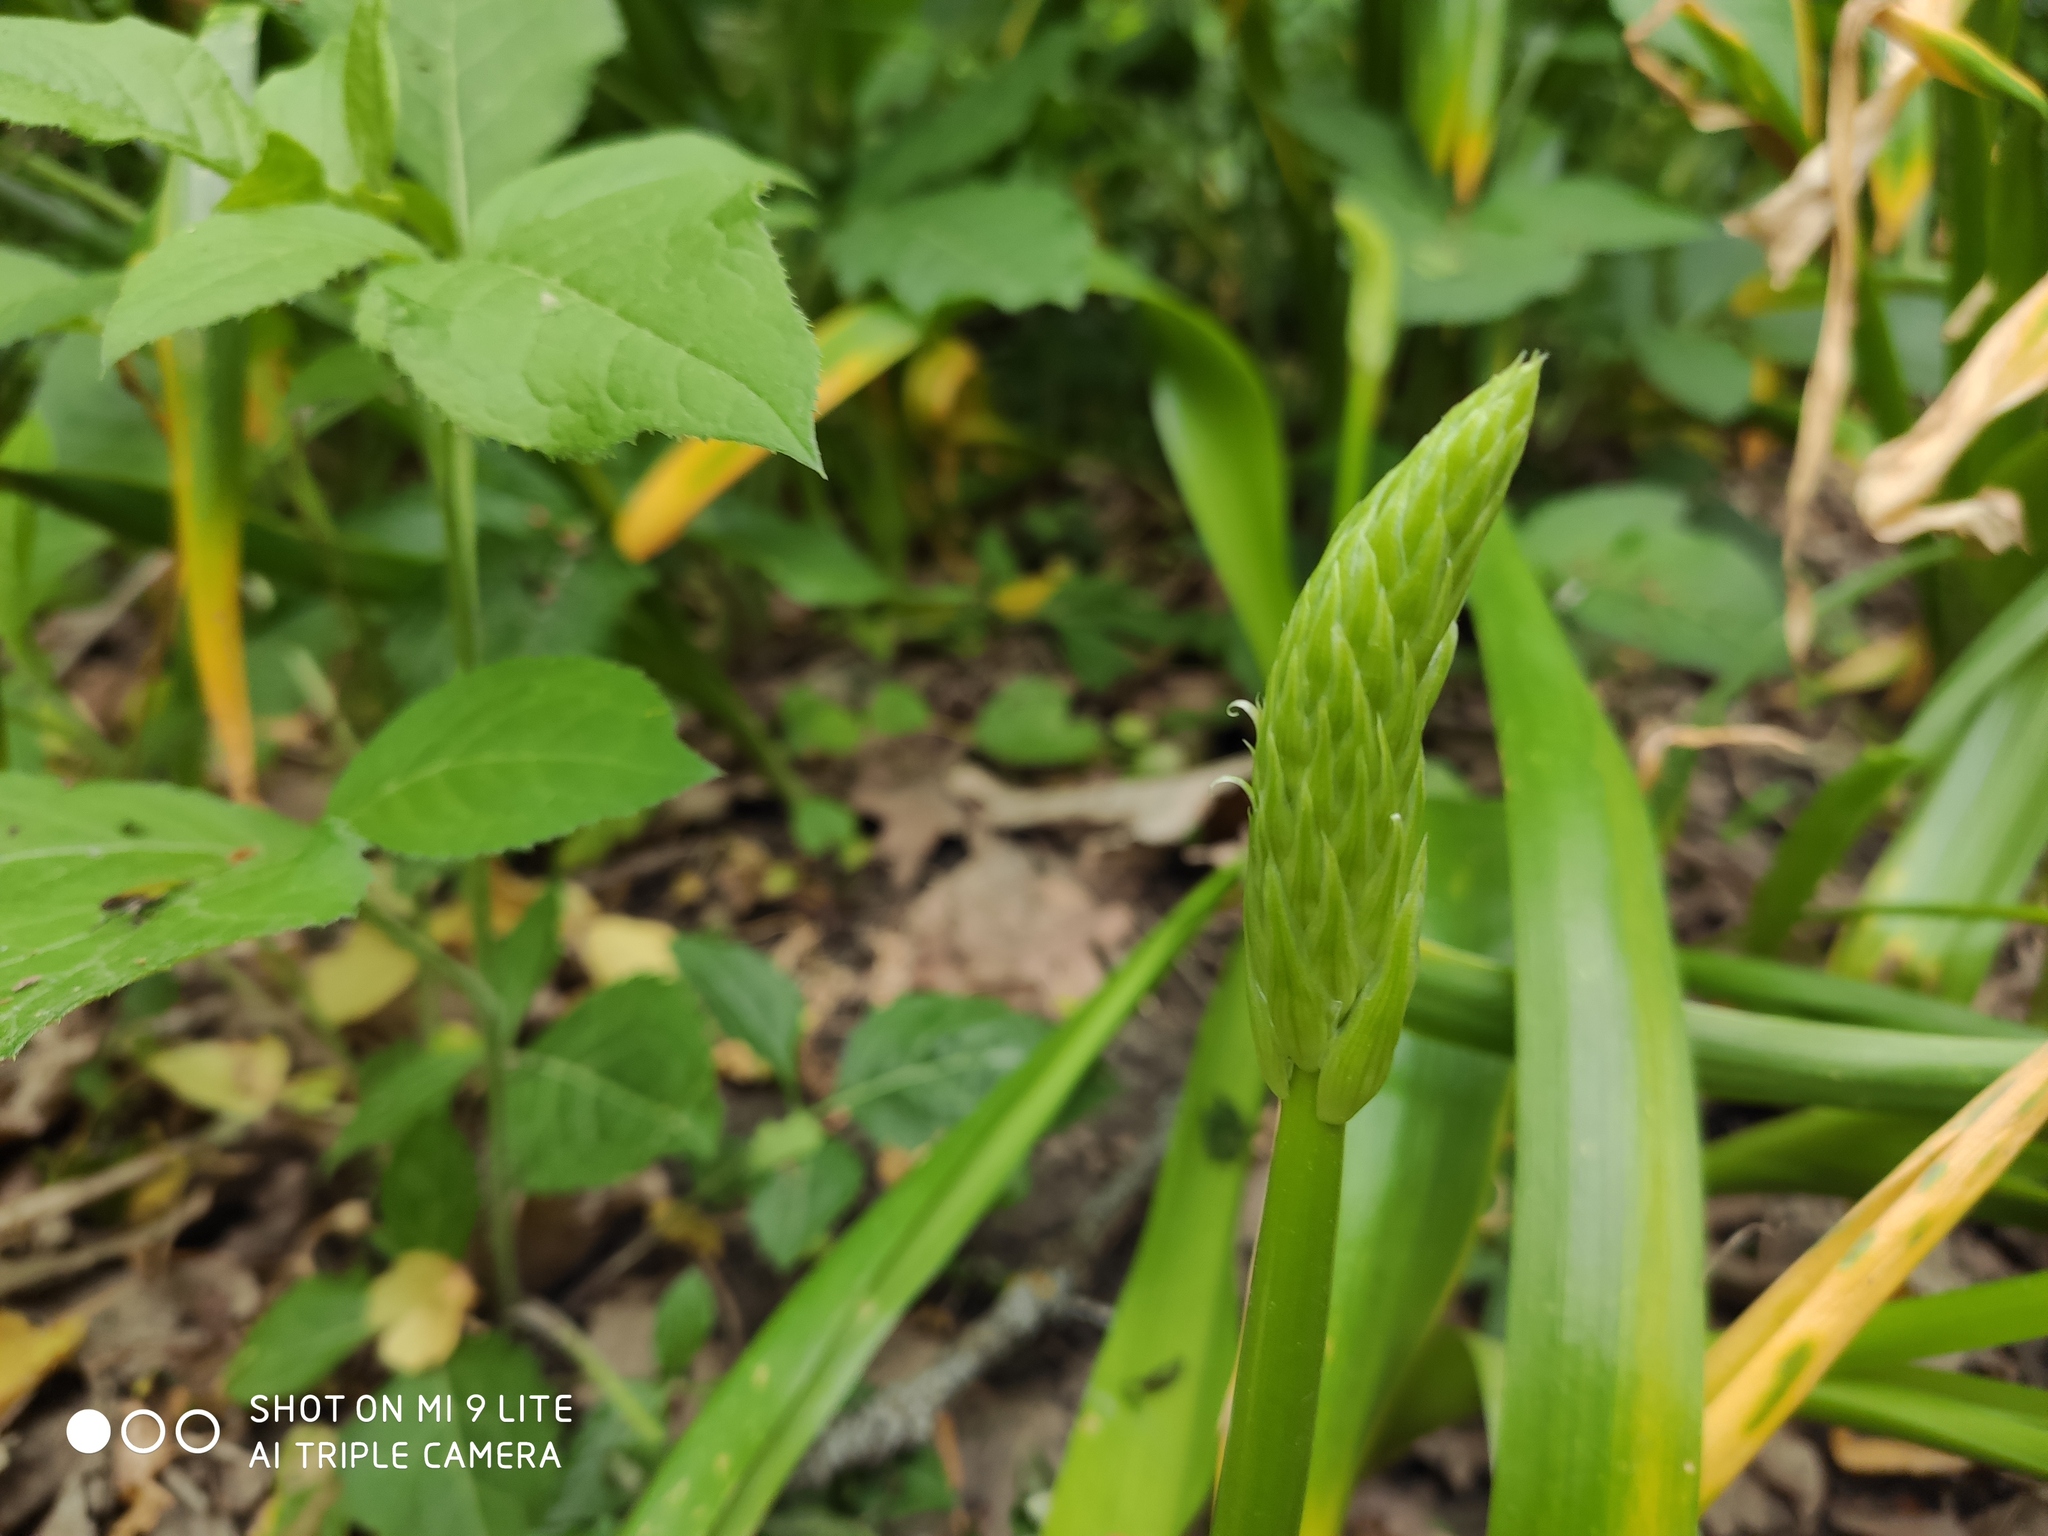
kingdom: Plantae
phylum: Tracheophyta
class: Liliopsida
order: Asparagales
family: Asparagaceae
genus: Ornithogalum
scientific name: Ornithogalum arcuatum
